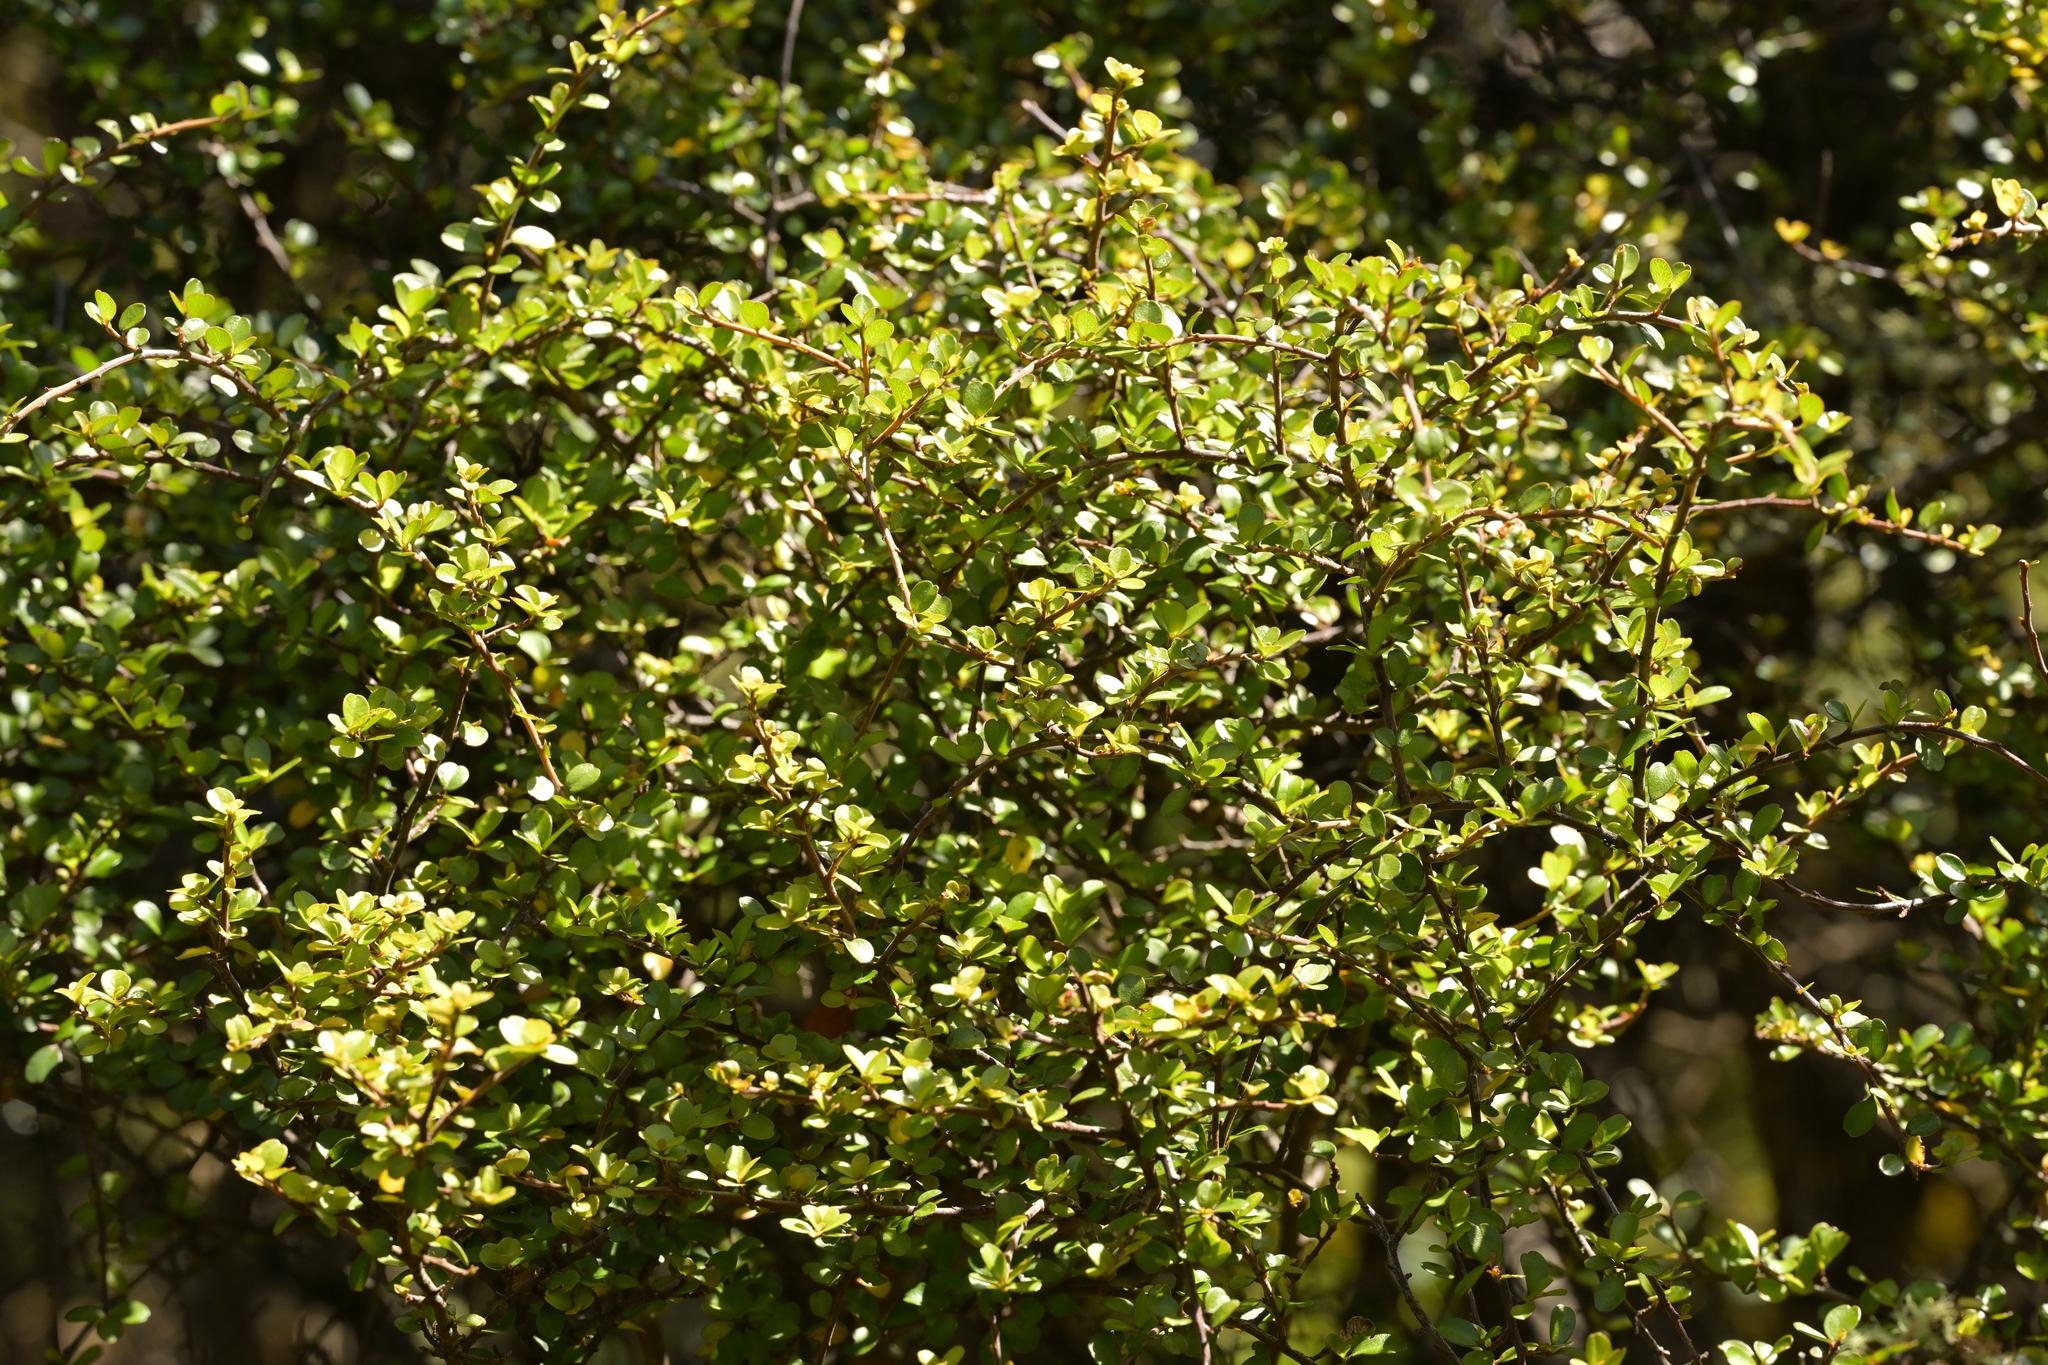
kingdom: Plantae
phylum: Tracheophyta
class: Magnoliopsida
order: Ericales
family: Primulaceae
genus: Myrsine
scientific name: Myrsine divaricata
